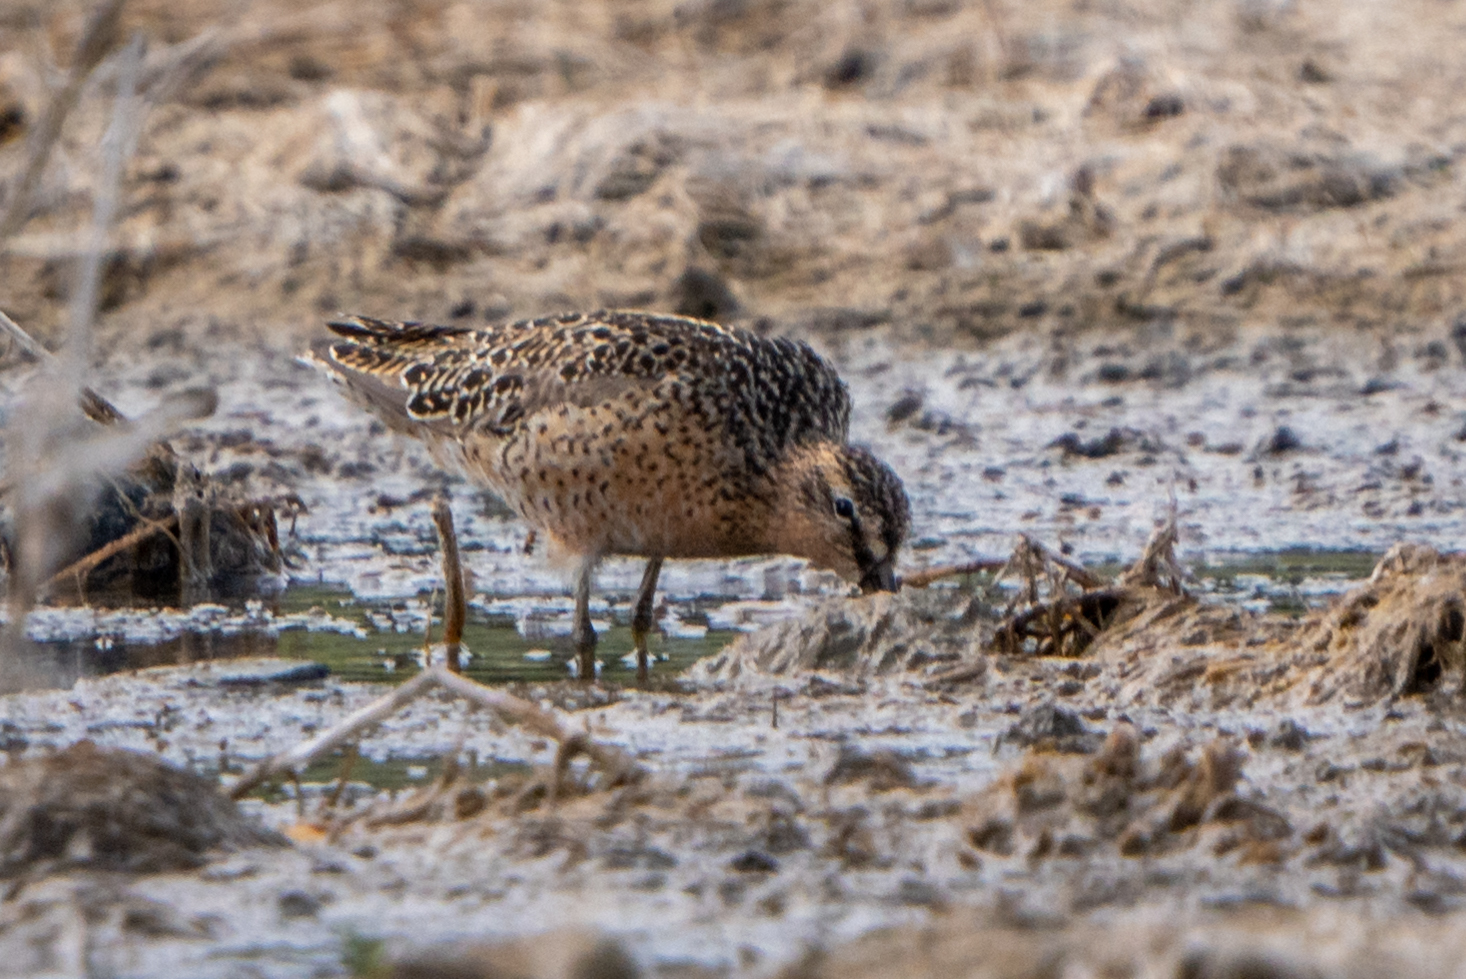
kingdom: Animalia
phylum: Chordata
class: Aves
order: Charadriiformes
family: Scolopacidae
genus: Limnodromus
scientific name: Limnodromus scolopaceus
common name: Long-billed dowitcher
